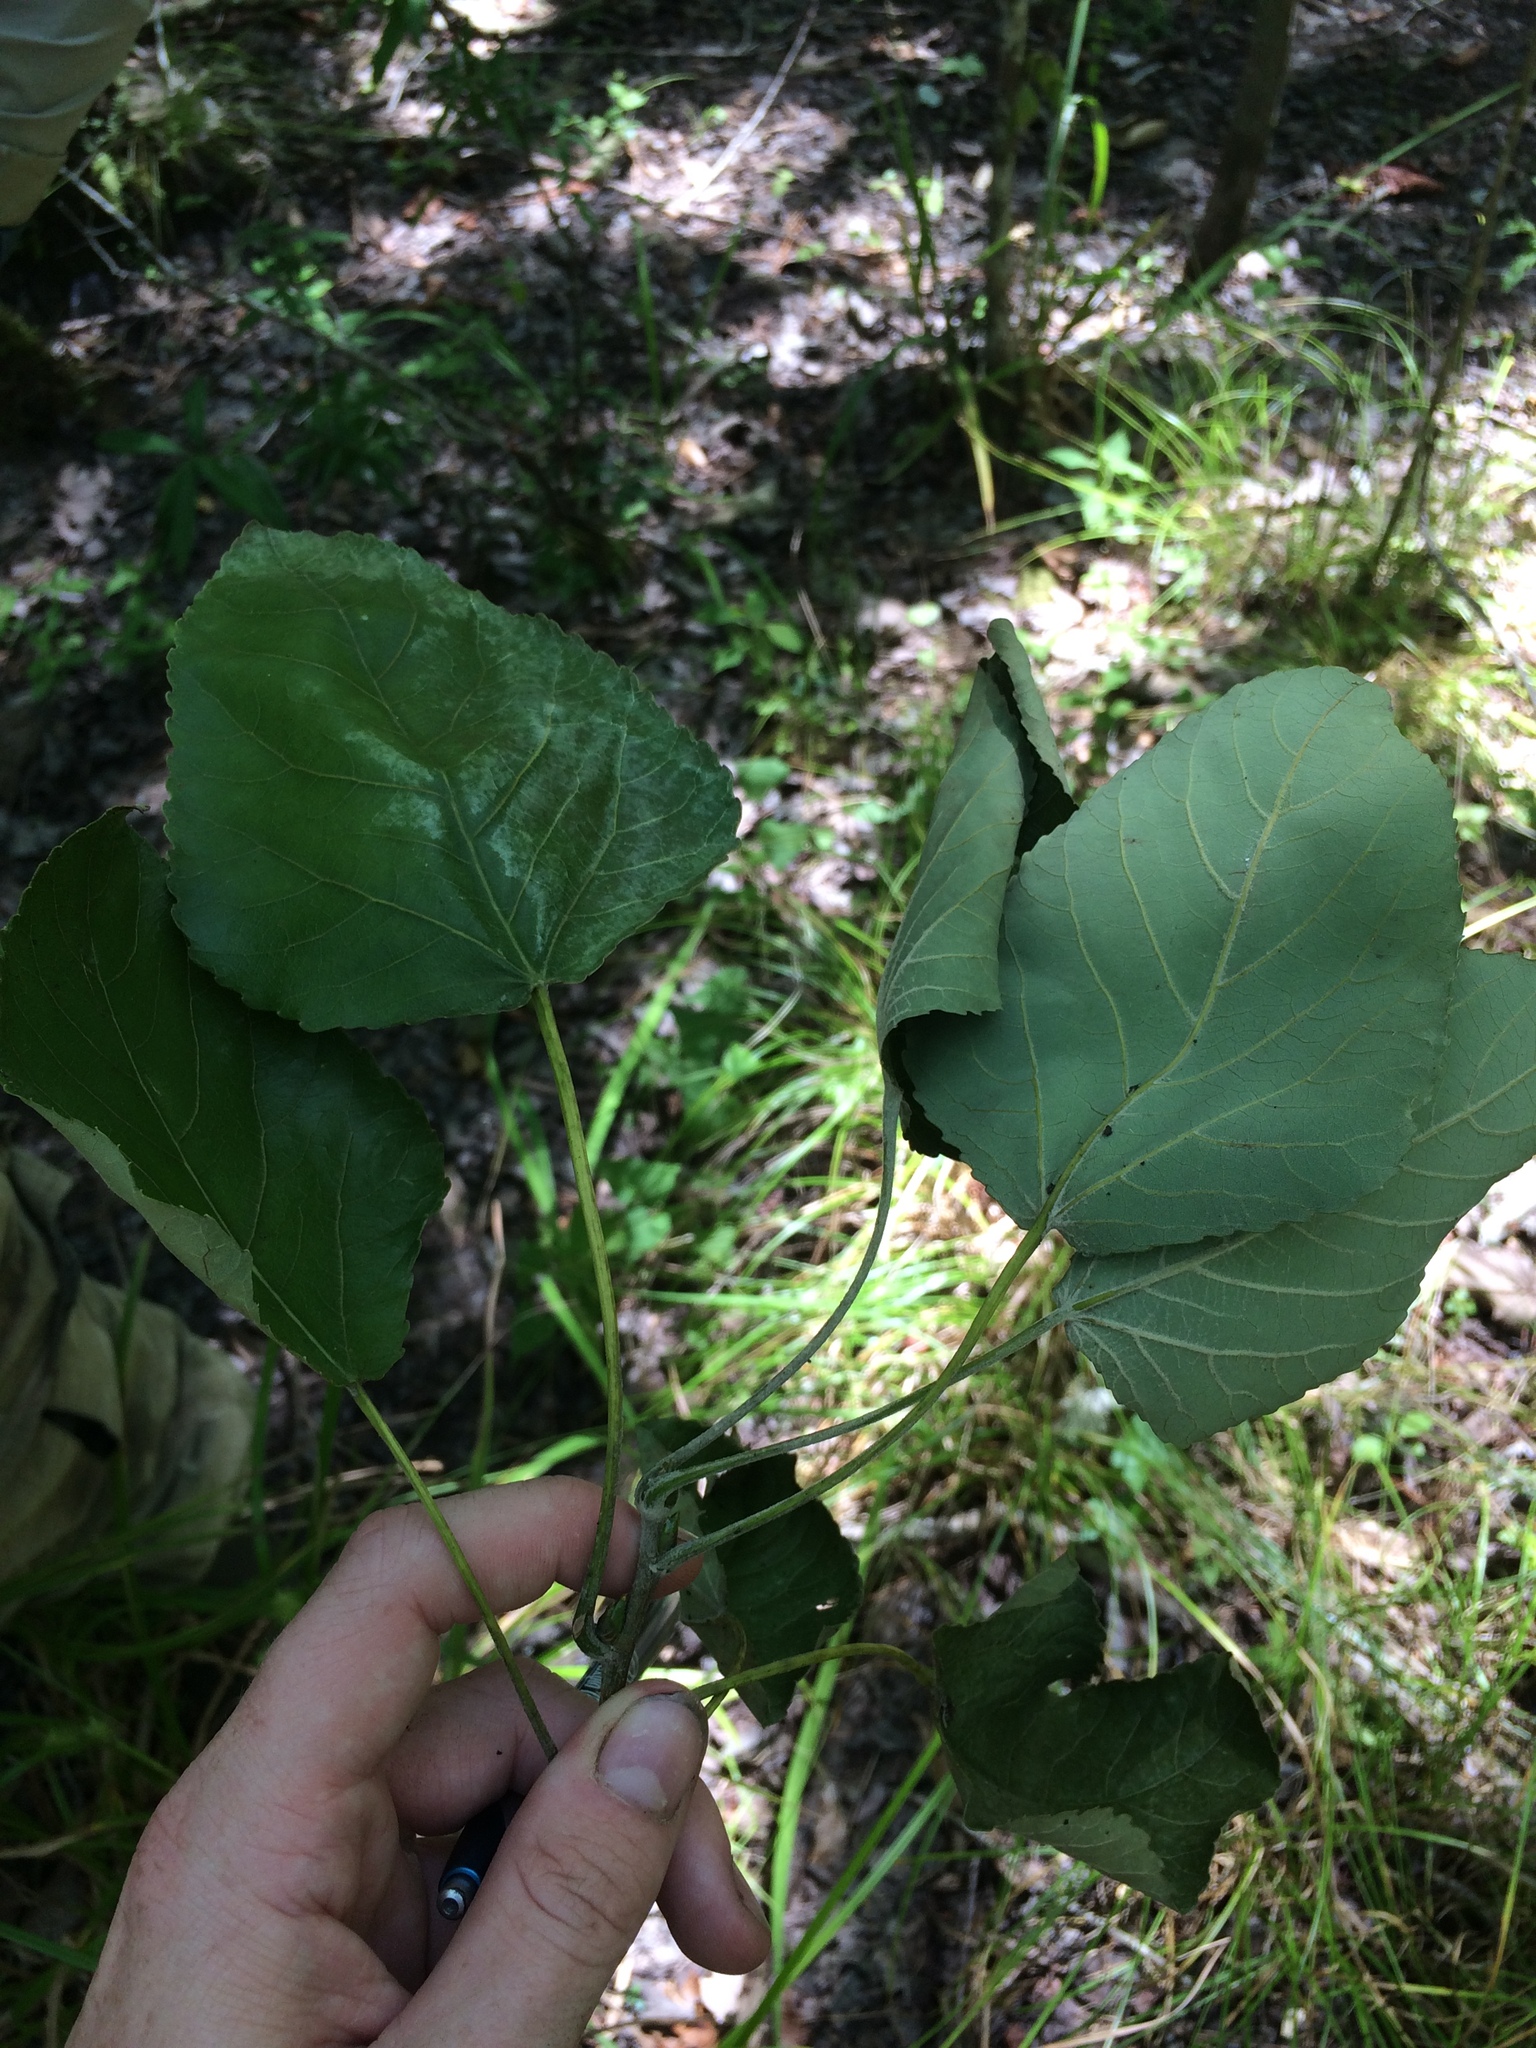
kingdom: Plantae
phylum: Tracheophyta
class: Magnoliopsida
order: Malpighiales
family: Salicaceae
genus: Populus
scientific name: Populus heterophylla
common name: Downy poplar
